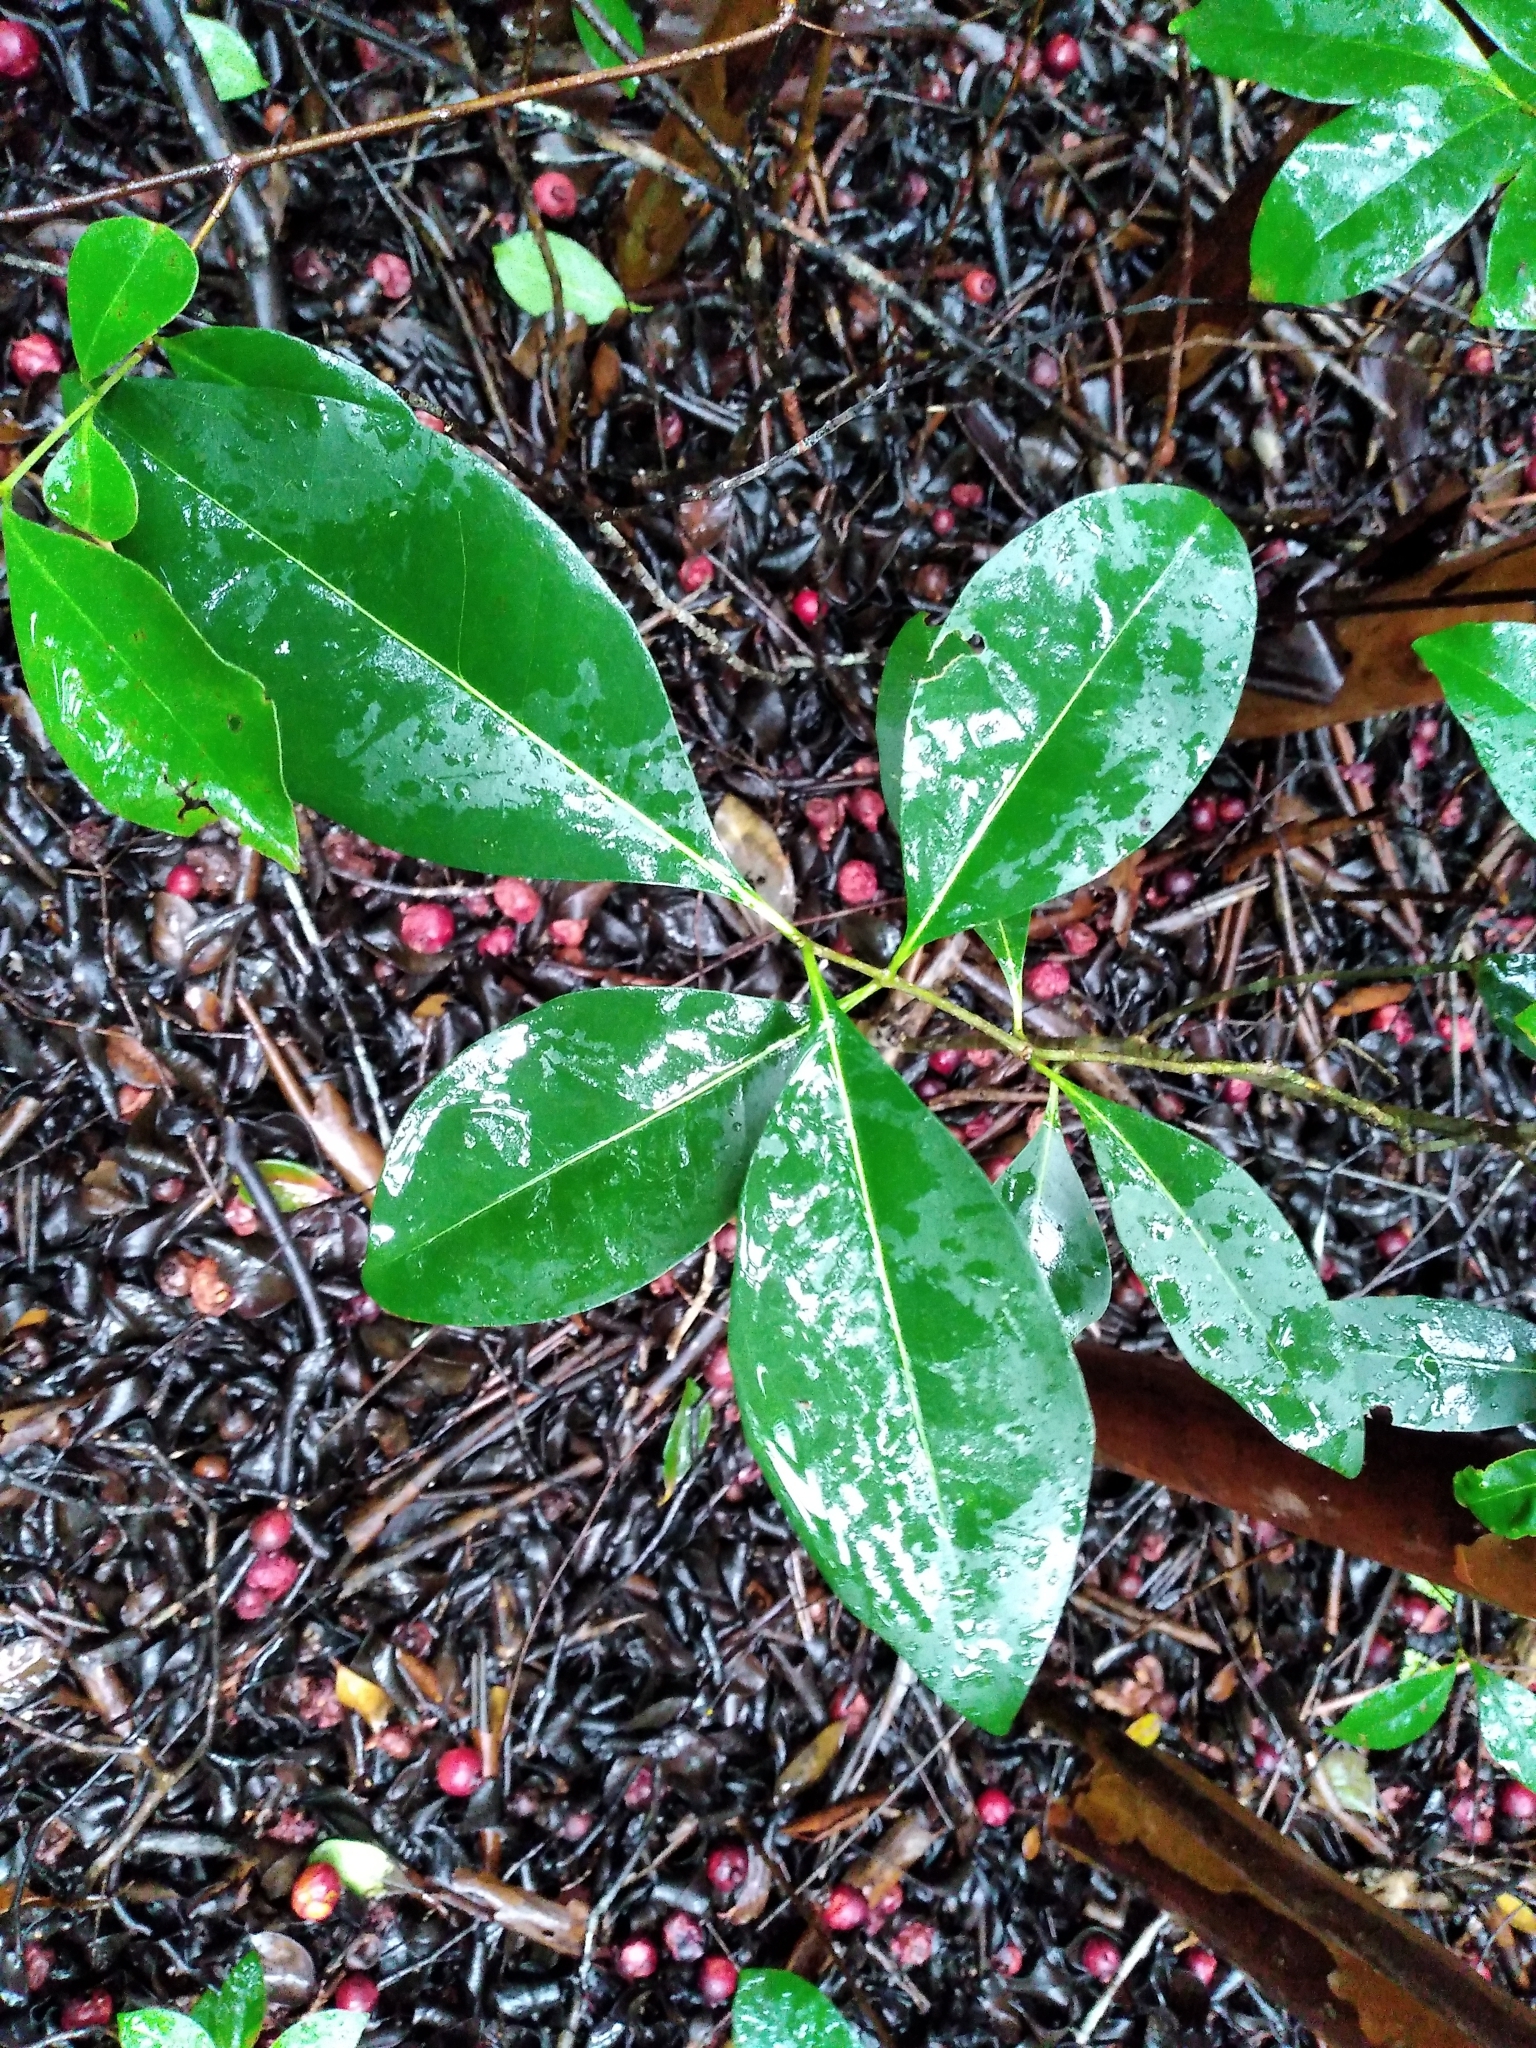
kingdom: Plantae
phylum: Tracheophyta
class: Magnoliopsida
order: Myrtales
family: Myrtaceae
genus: Psidium
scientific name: Psidium cattleianum
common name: Strawberry guava
